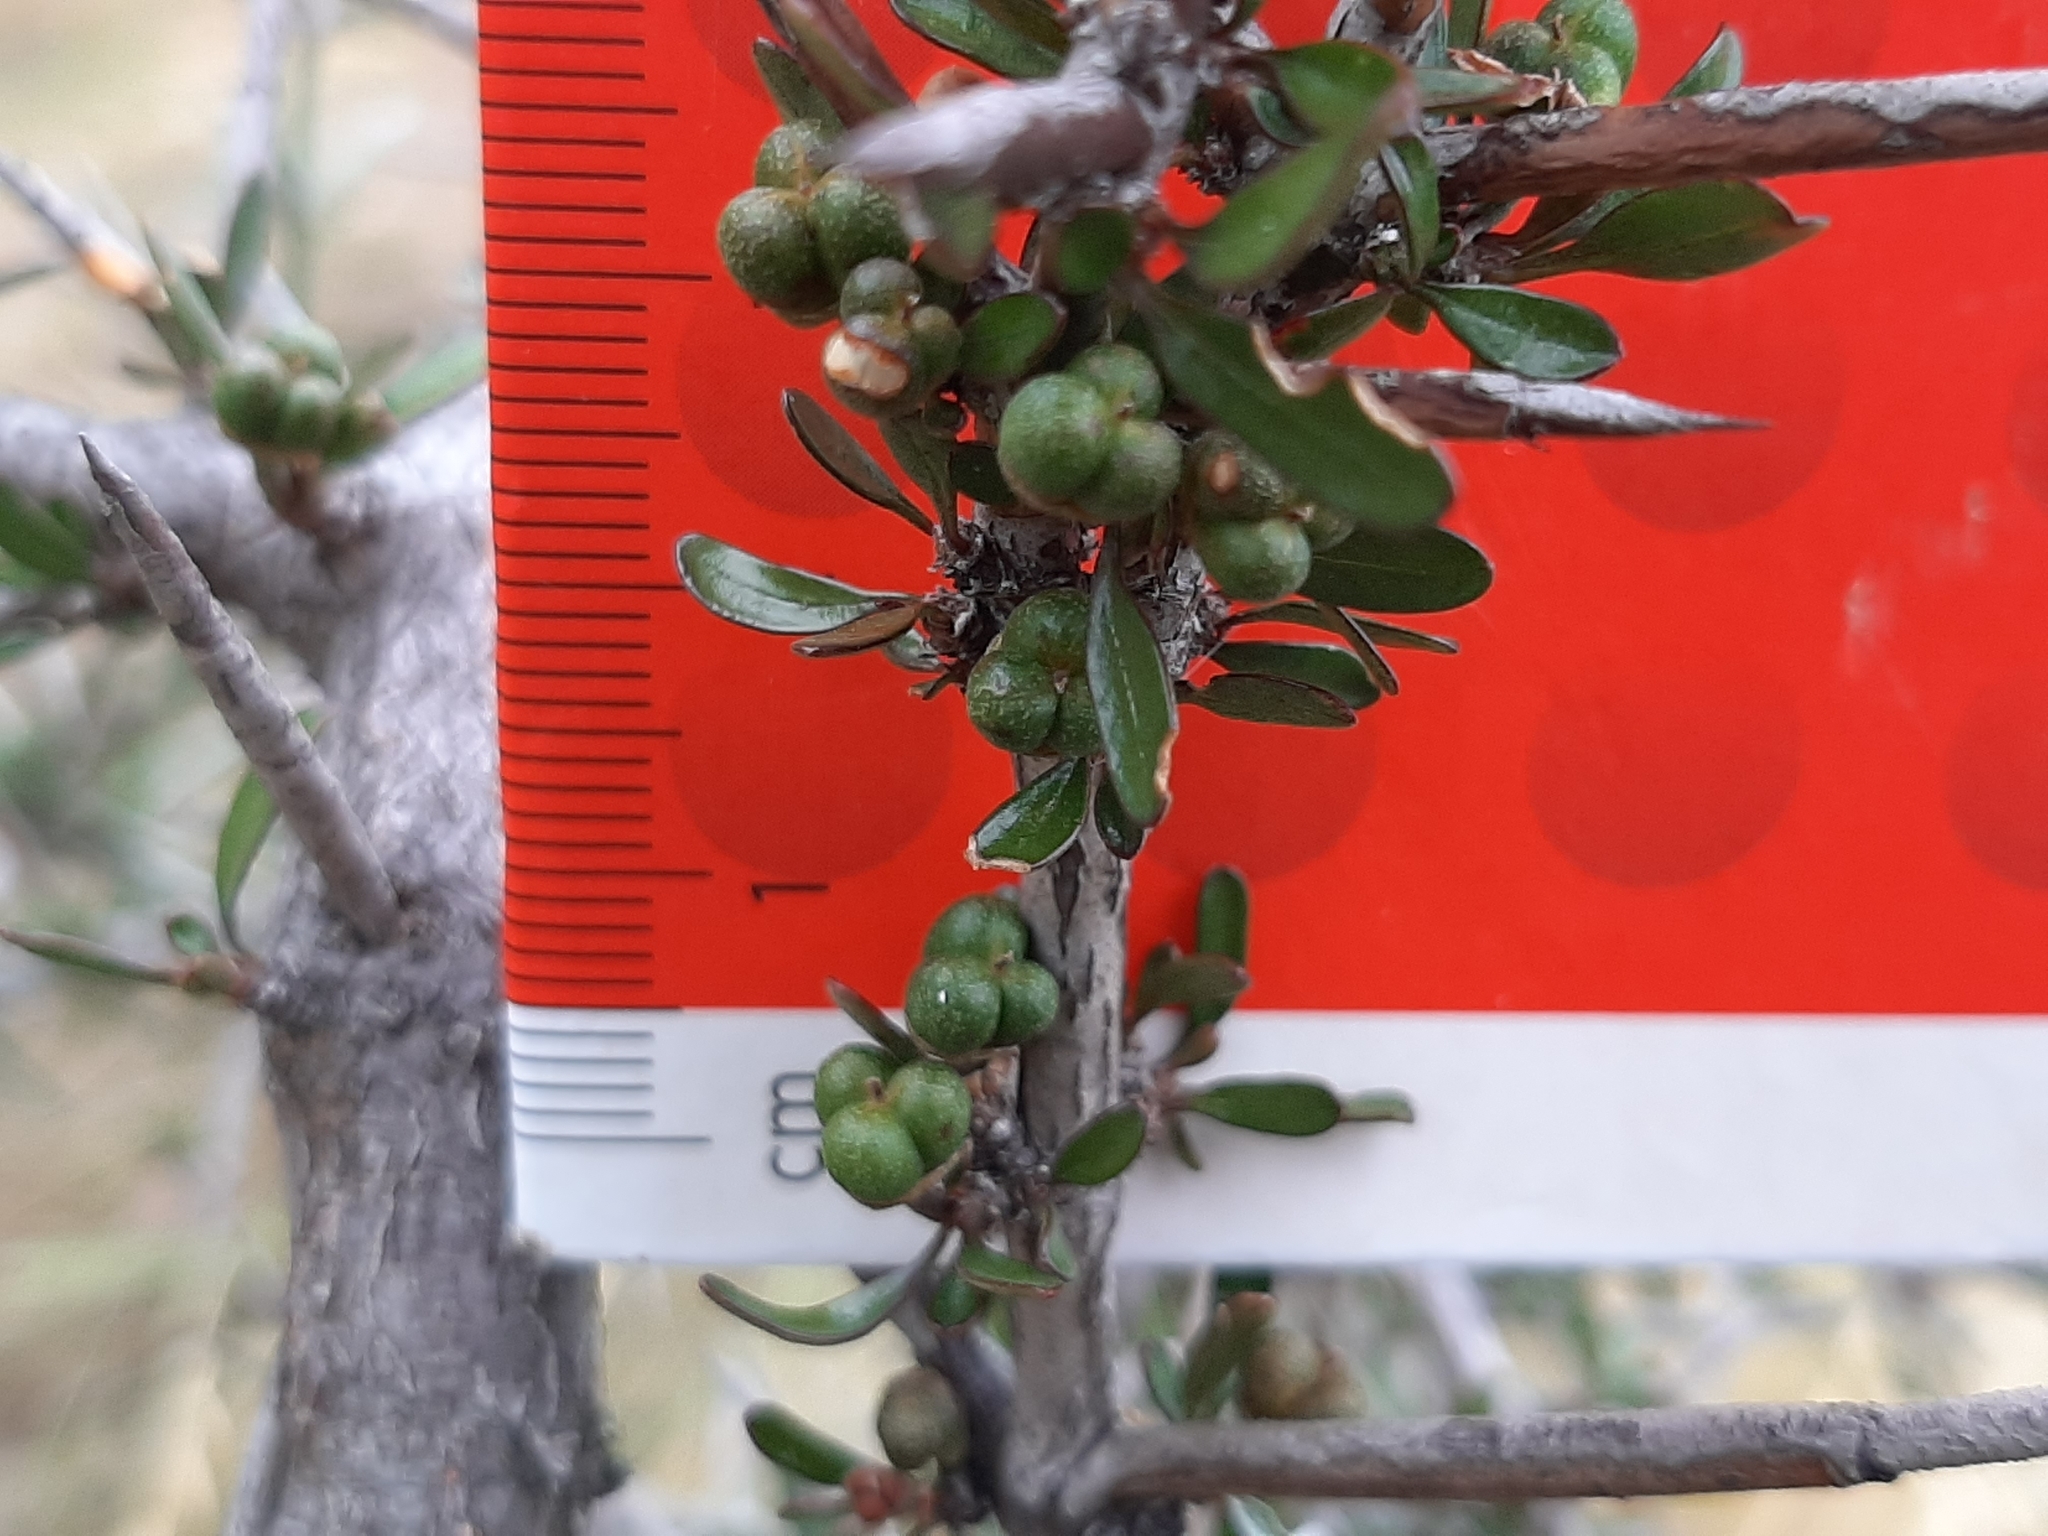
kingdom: Plantae
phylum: Tracheophyta
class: Magnoliopsida
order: Rosales
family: Rhamnaceae
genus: Discaria
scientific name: Discaria toumatou
